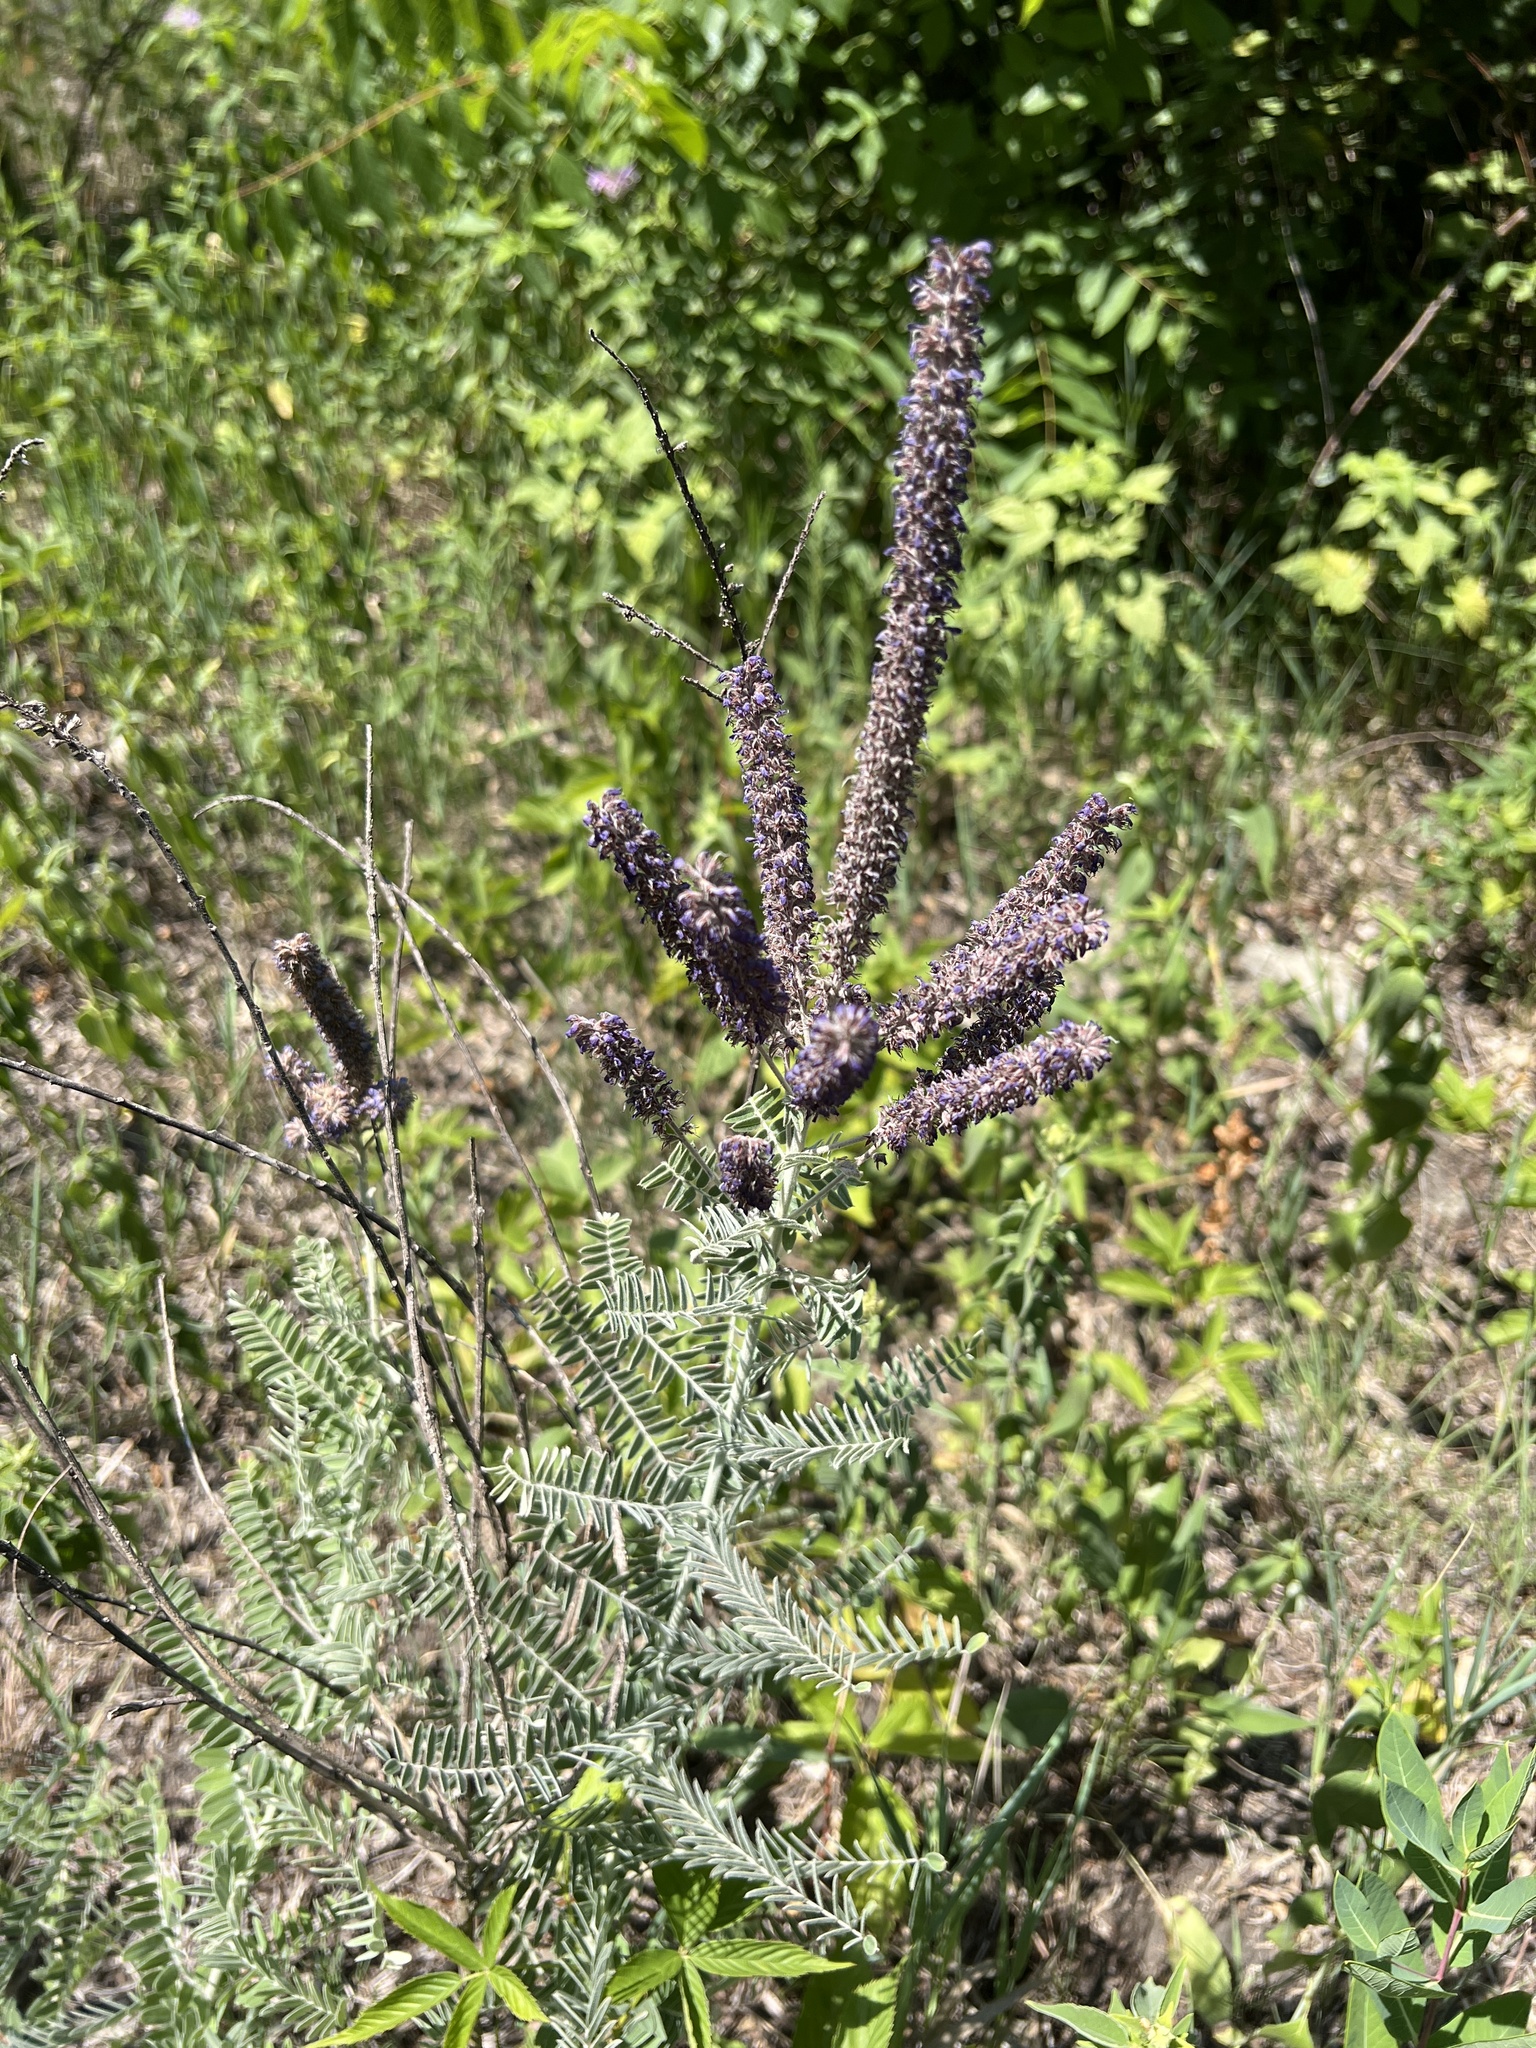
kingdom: Plantae
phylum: Tracheophyta
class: Magnoliopsida
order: Fabales
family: Fabaceae
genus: Amorpha
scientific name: Amorpha canescens
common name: Leadplant
